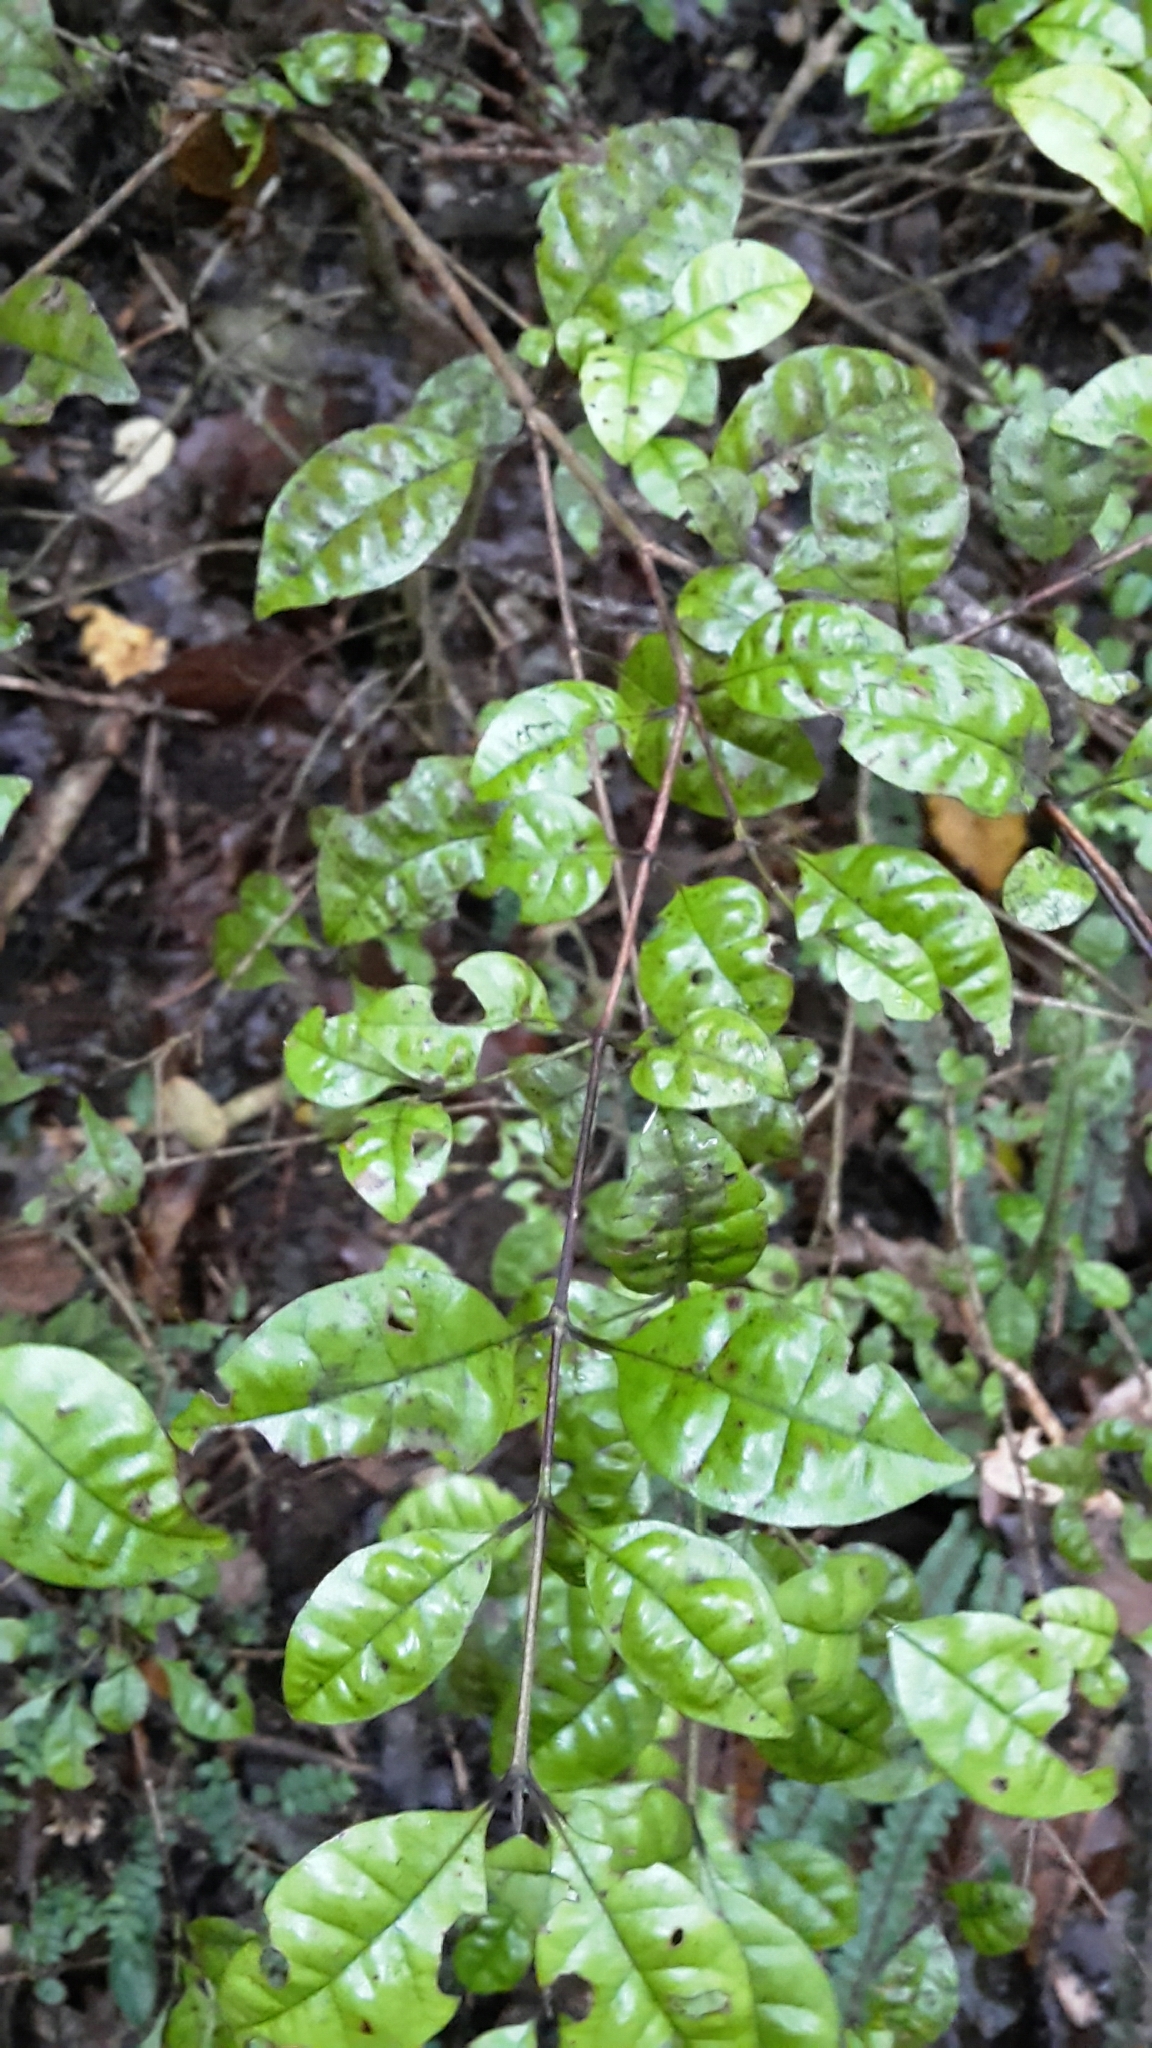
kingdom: Plantae
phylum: Tracheophyta
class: Magnoliopsida
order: Myrtales
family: Myrtaceae
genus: Lophomyrtus
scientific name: Lophomyrtus bullata
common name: Rama rama
